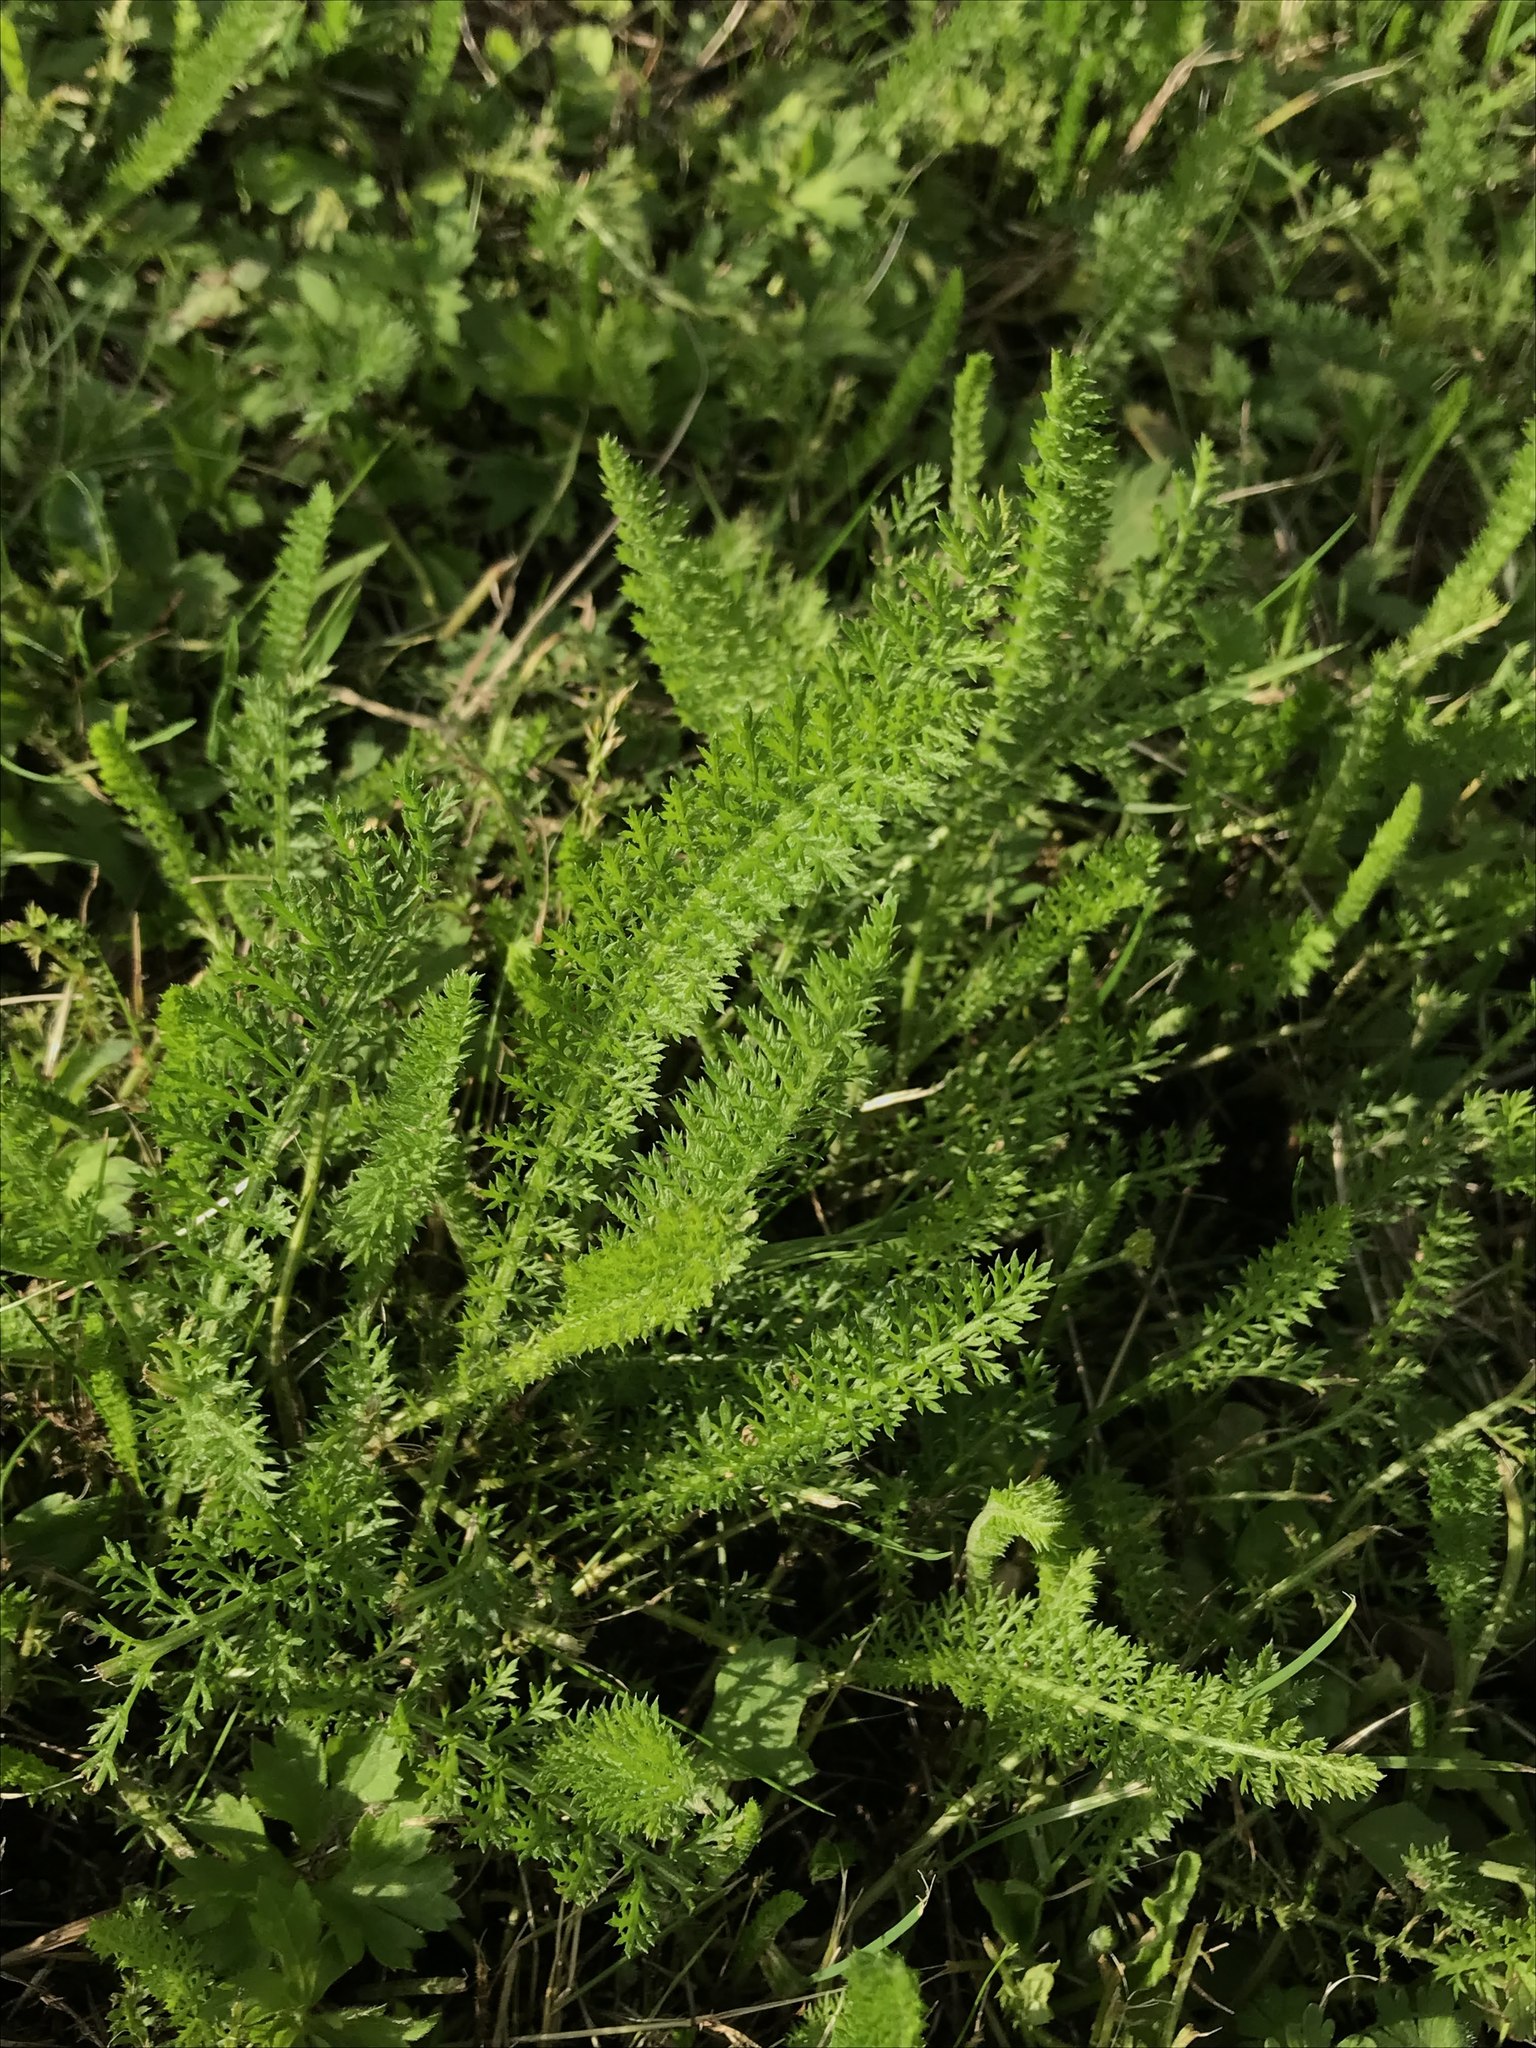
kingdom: Plantae
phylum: Tracheophyta
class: Magnoliopsida
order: Asterales
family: Asteraceae
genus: Achillea
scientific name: Achillea millefolium
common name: Yarrow
